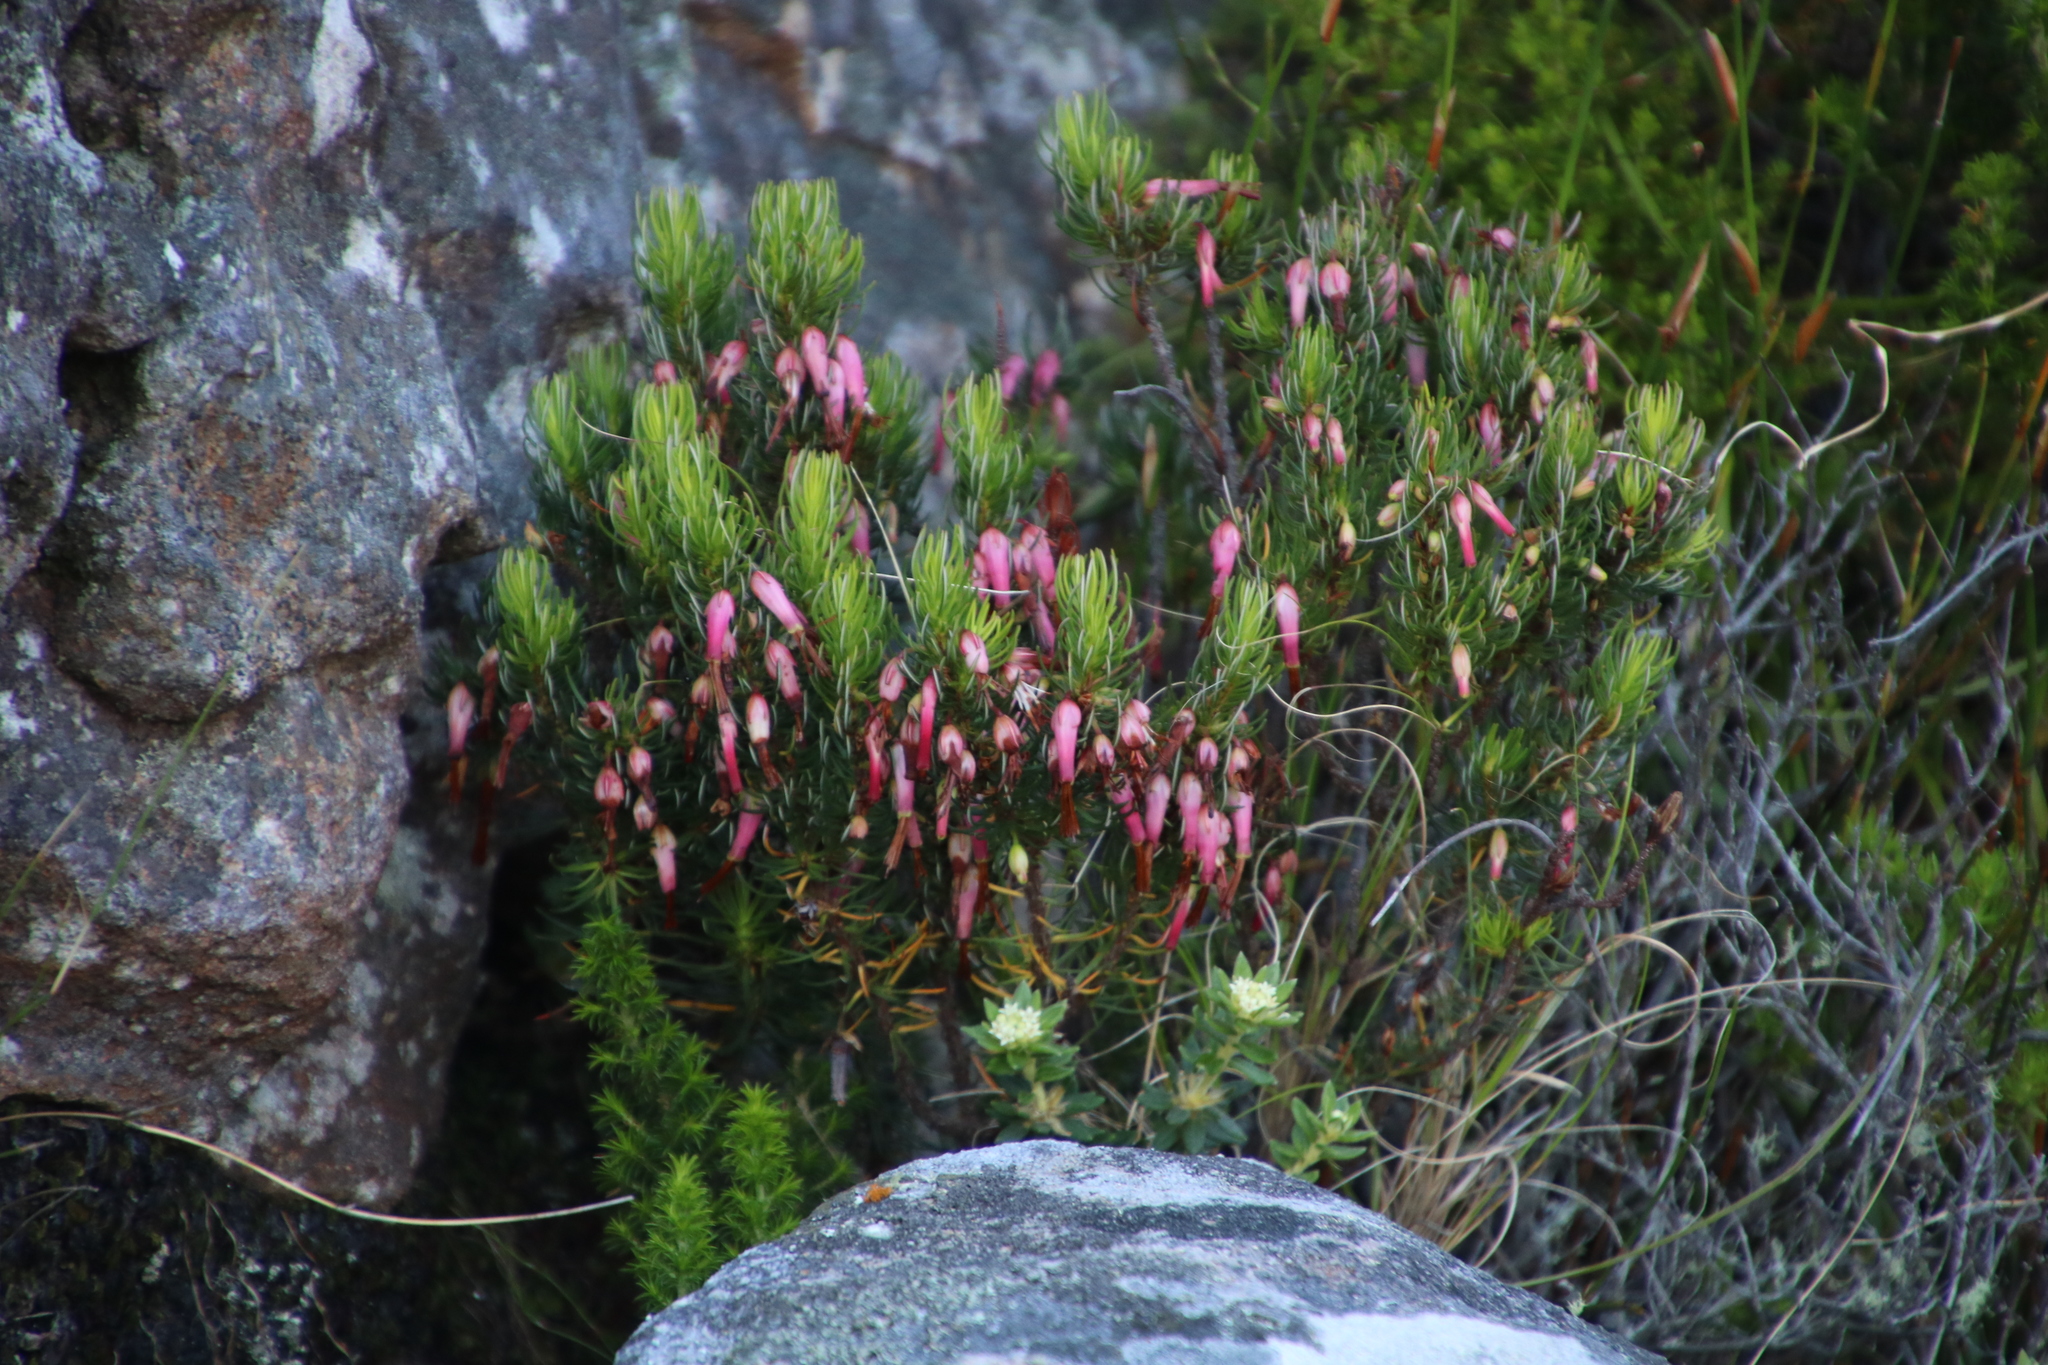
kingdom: Plantae
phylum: Tracheophyta
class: Magnoliopsida
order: Ericales
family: Ericaceae
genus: Erica
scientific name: Erica plukenetii
